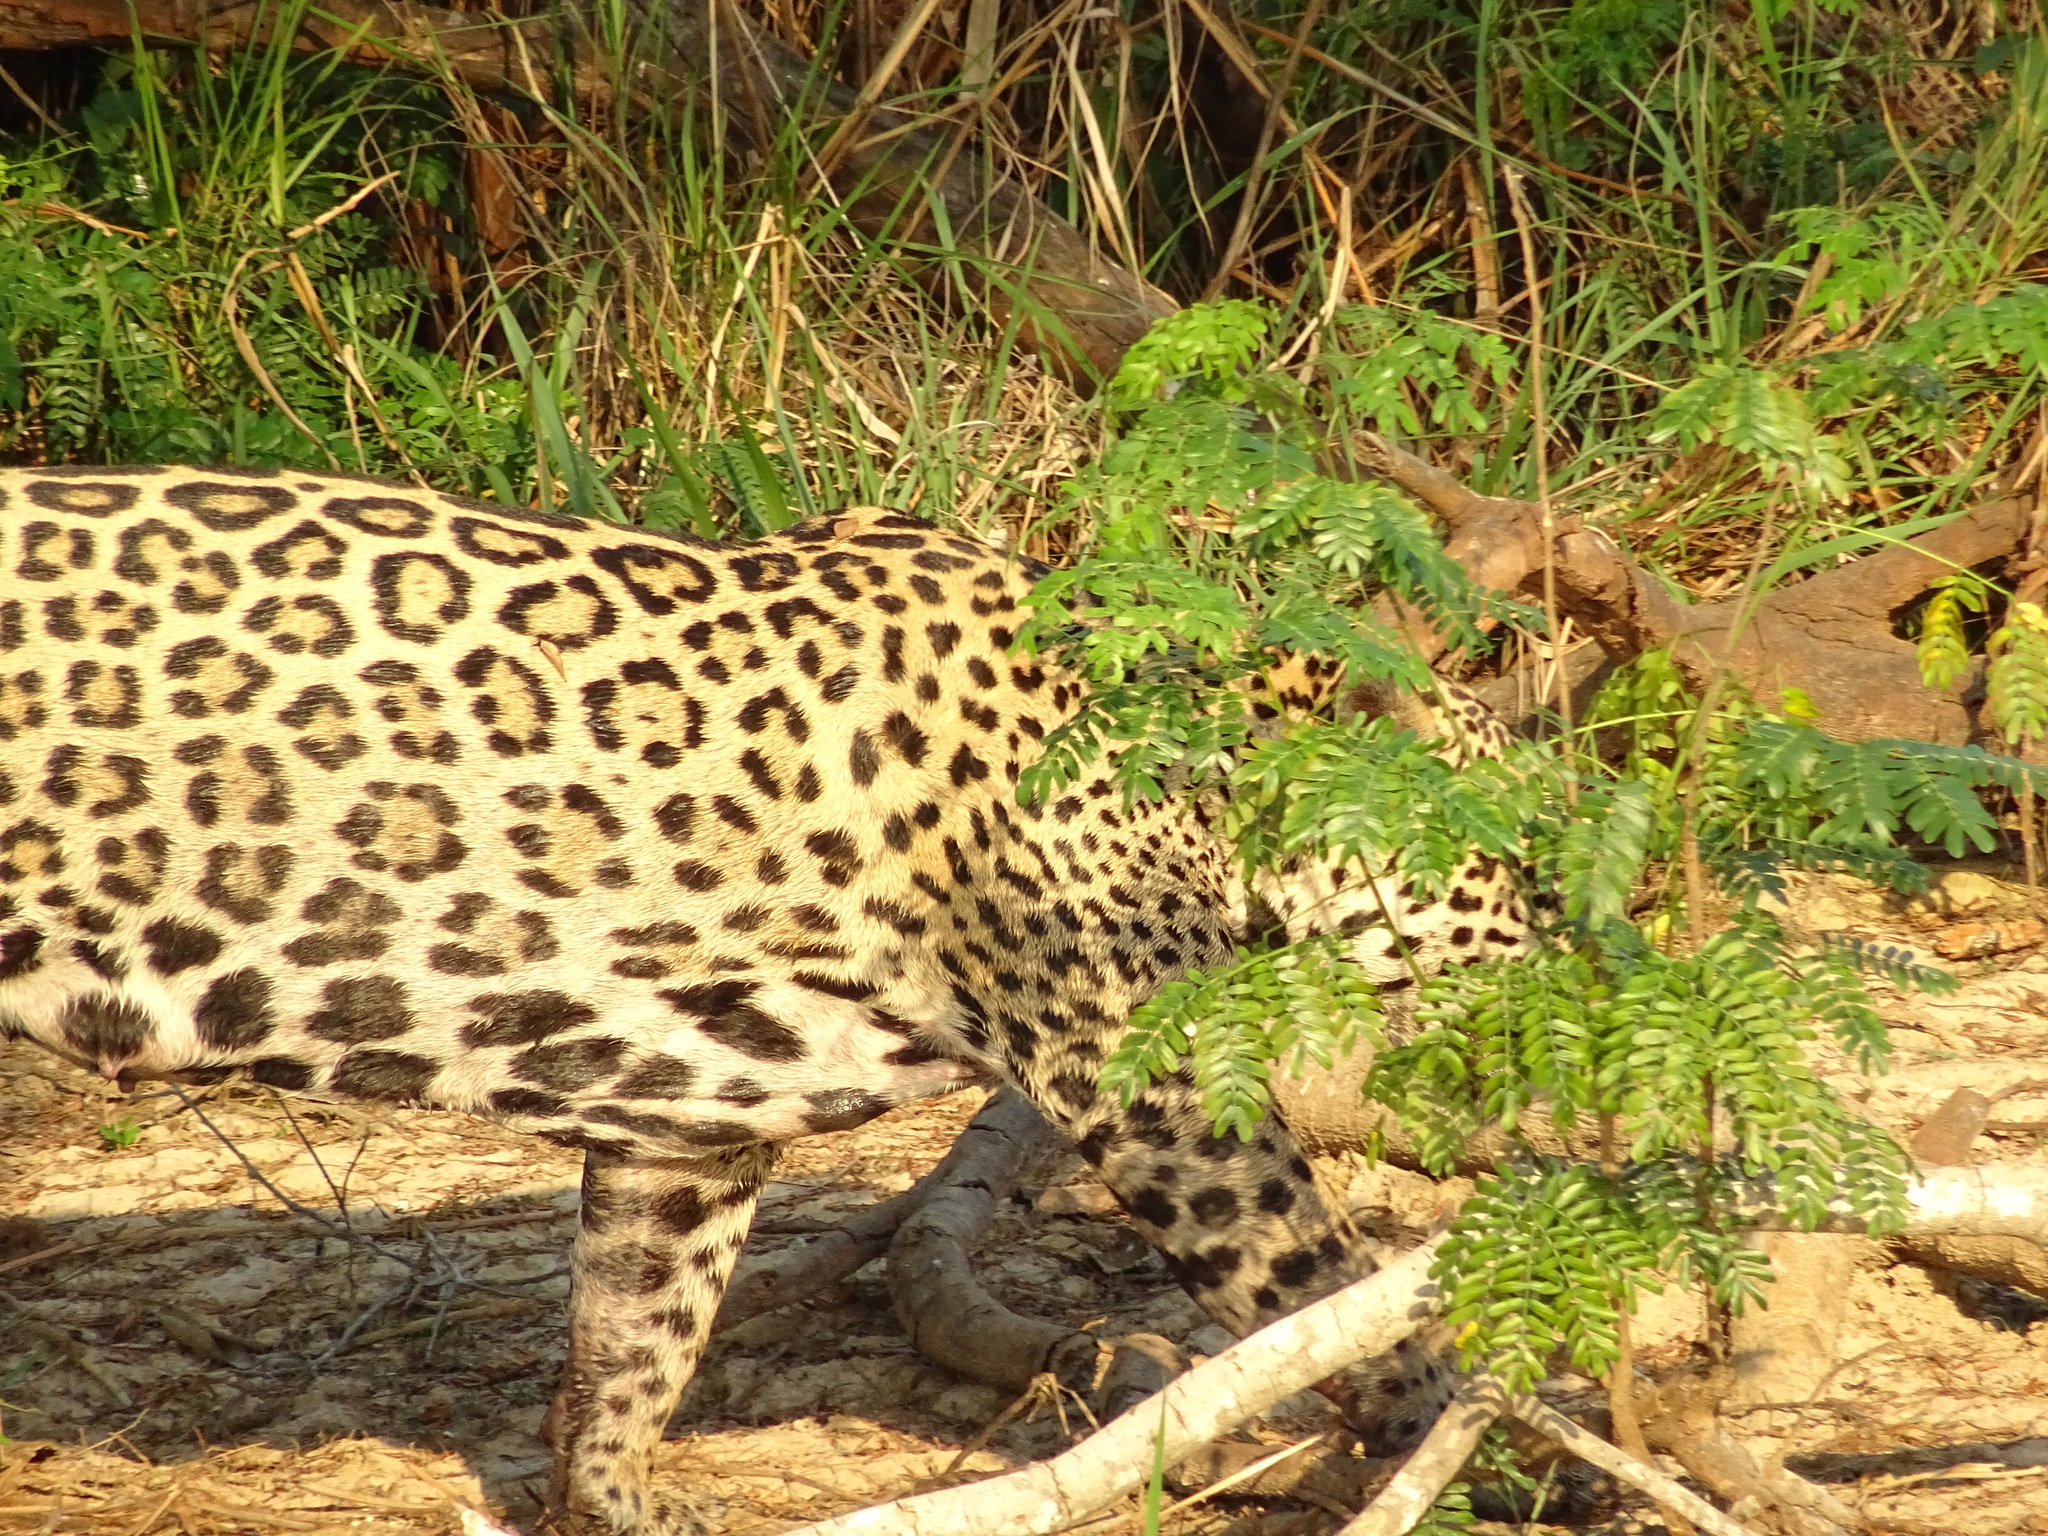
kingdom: Animalia
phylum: Chordata
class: Mammalia
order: Carnivora
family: Felidae
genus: Panthera
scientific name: Panthera onca
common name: Jaguar
